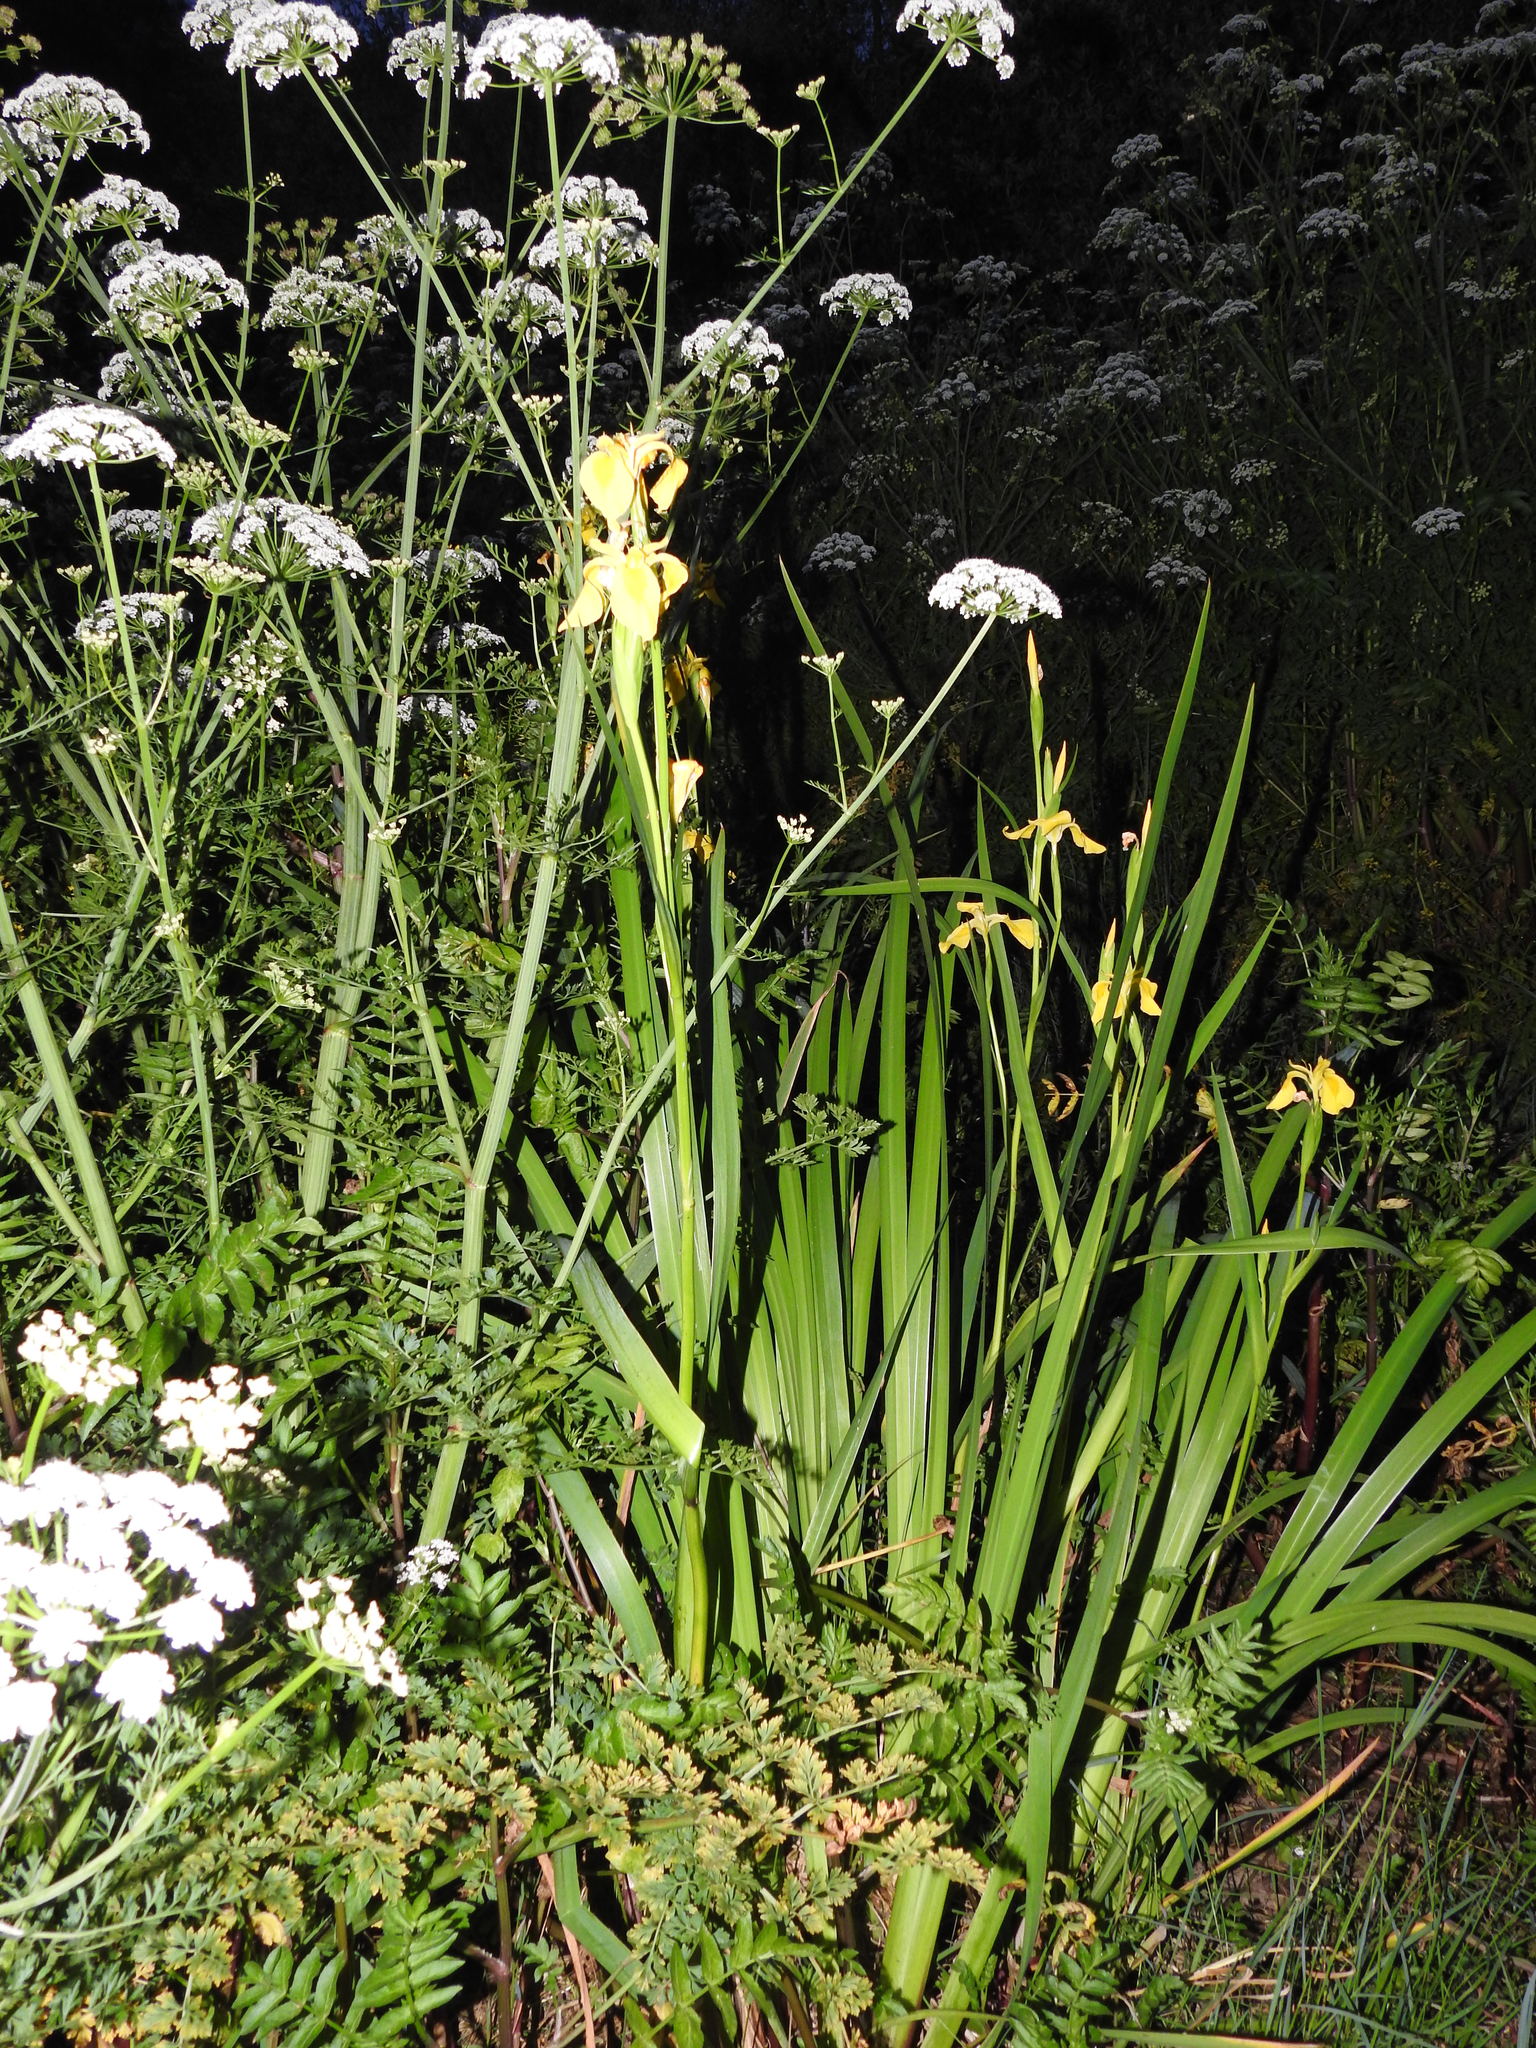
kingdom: Plantae
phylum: Tracheophyta
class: Liliopsida
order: Asparagales
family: Iridaceae
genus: Iris
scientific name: Iris pseudacorus
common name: Yellow flag
